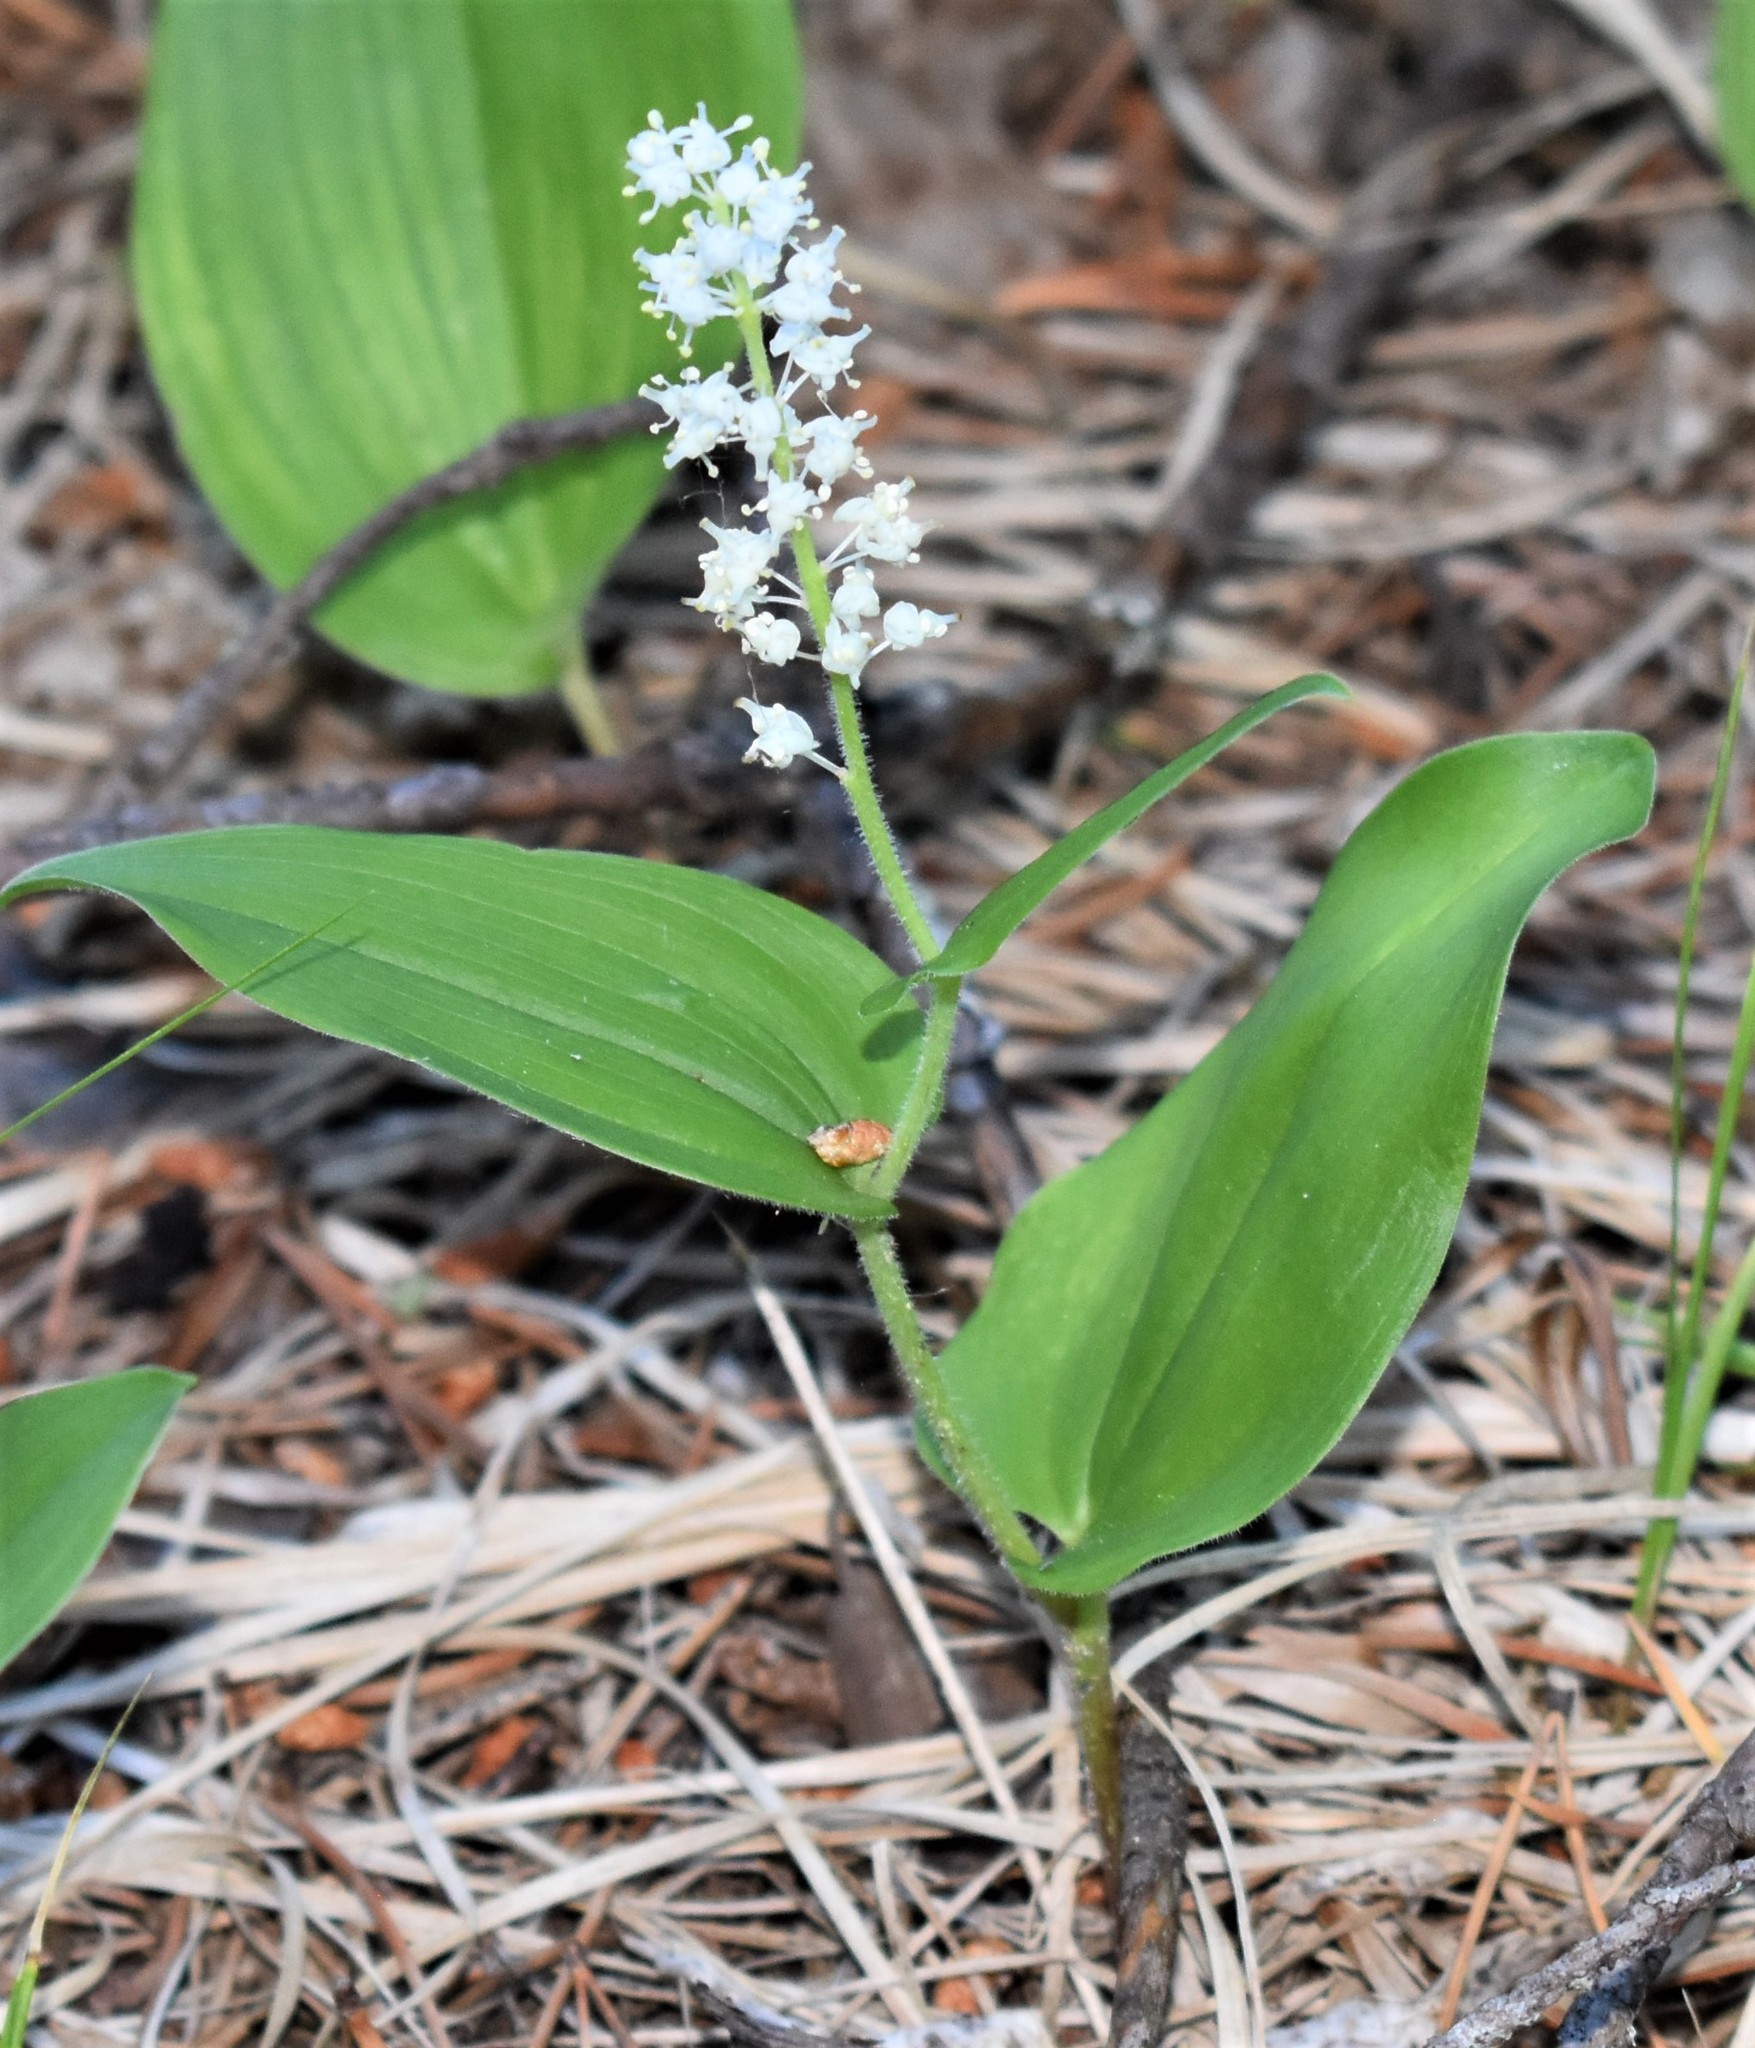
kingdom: Plantae
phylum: Tracheophyta
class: Liliopsida
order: Asparagales
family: Asparagaceae
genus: Maianthemum
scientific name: Maianthemum canadense
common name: False lily-of-the-valley
